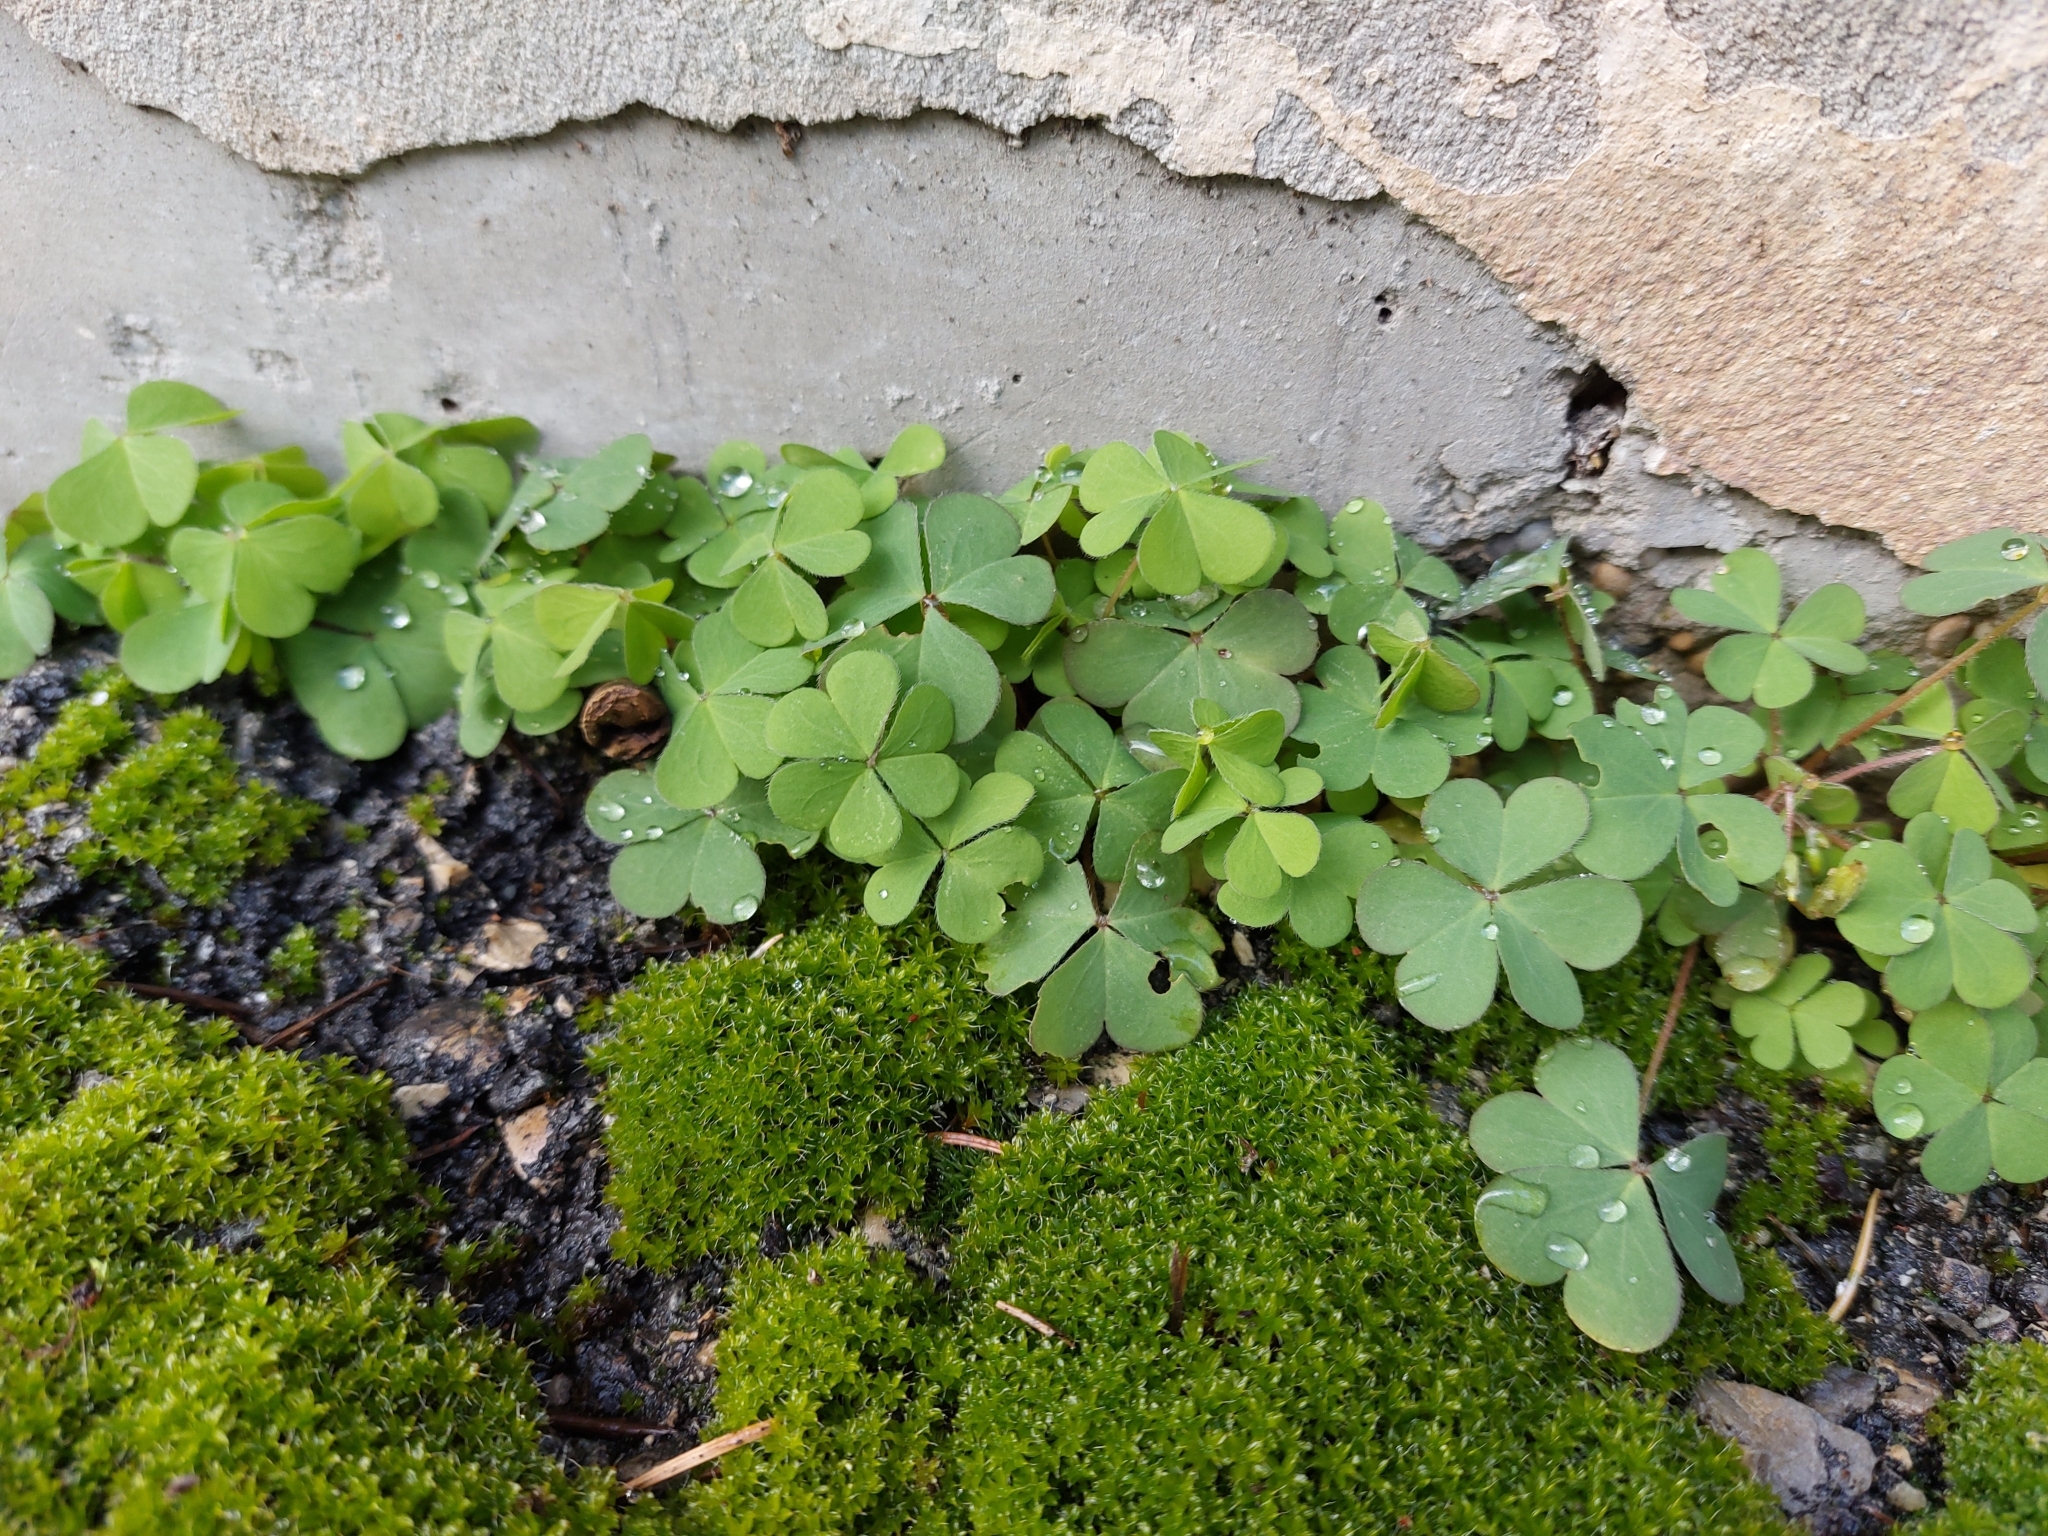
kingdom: Plantae
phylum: Tracheophyta
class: Magnoliopsida
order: Oxalidales
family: Oxalidaceae
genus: Oxalis
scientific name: Oxalis corniculata
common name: Procumbent yellow-sorrel
